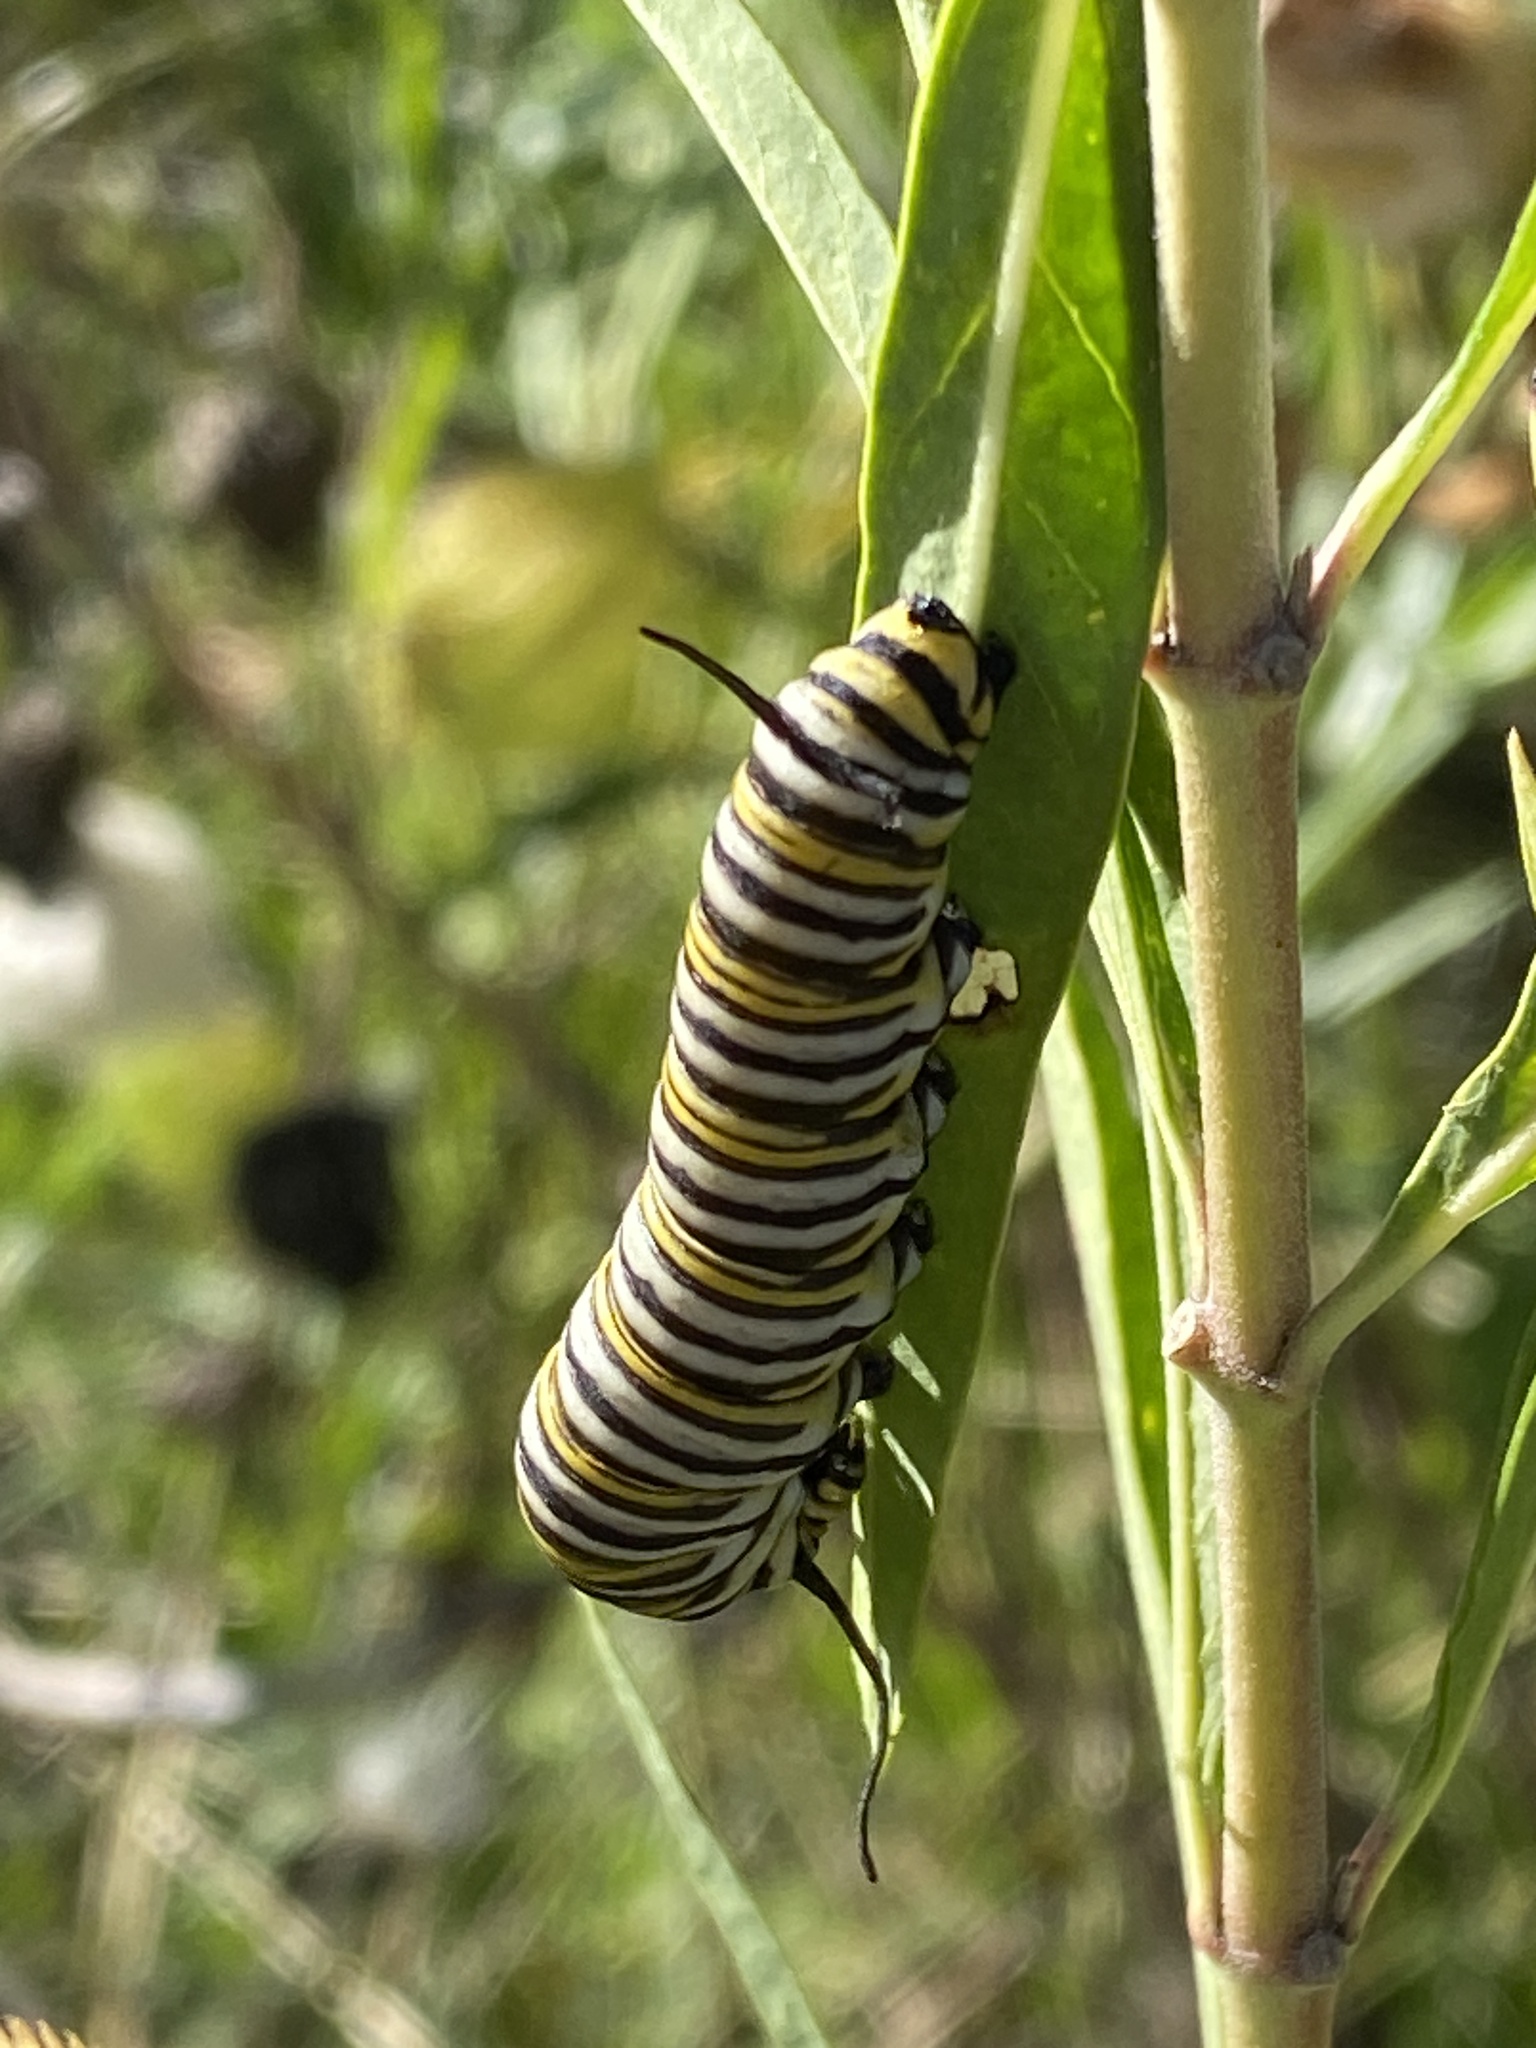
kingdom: Animalia
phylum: Arthropoda
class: Insecta
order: Lepidoptera
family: Nymphalidae
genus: Danaus
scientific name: Danaus plexippus
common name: Monarch
